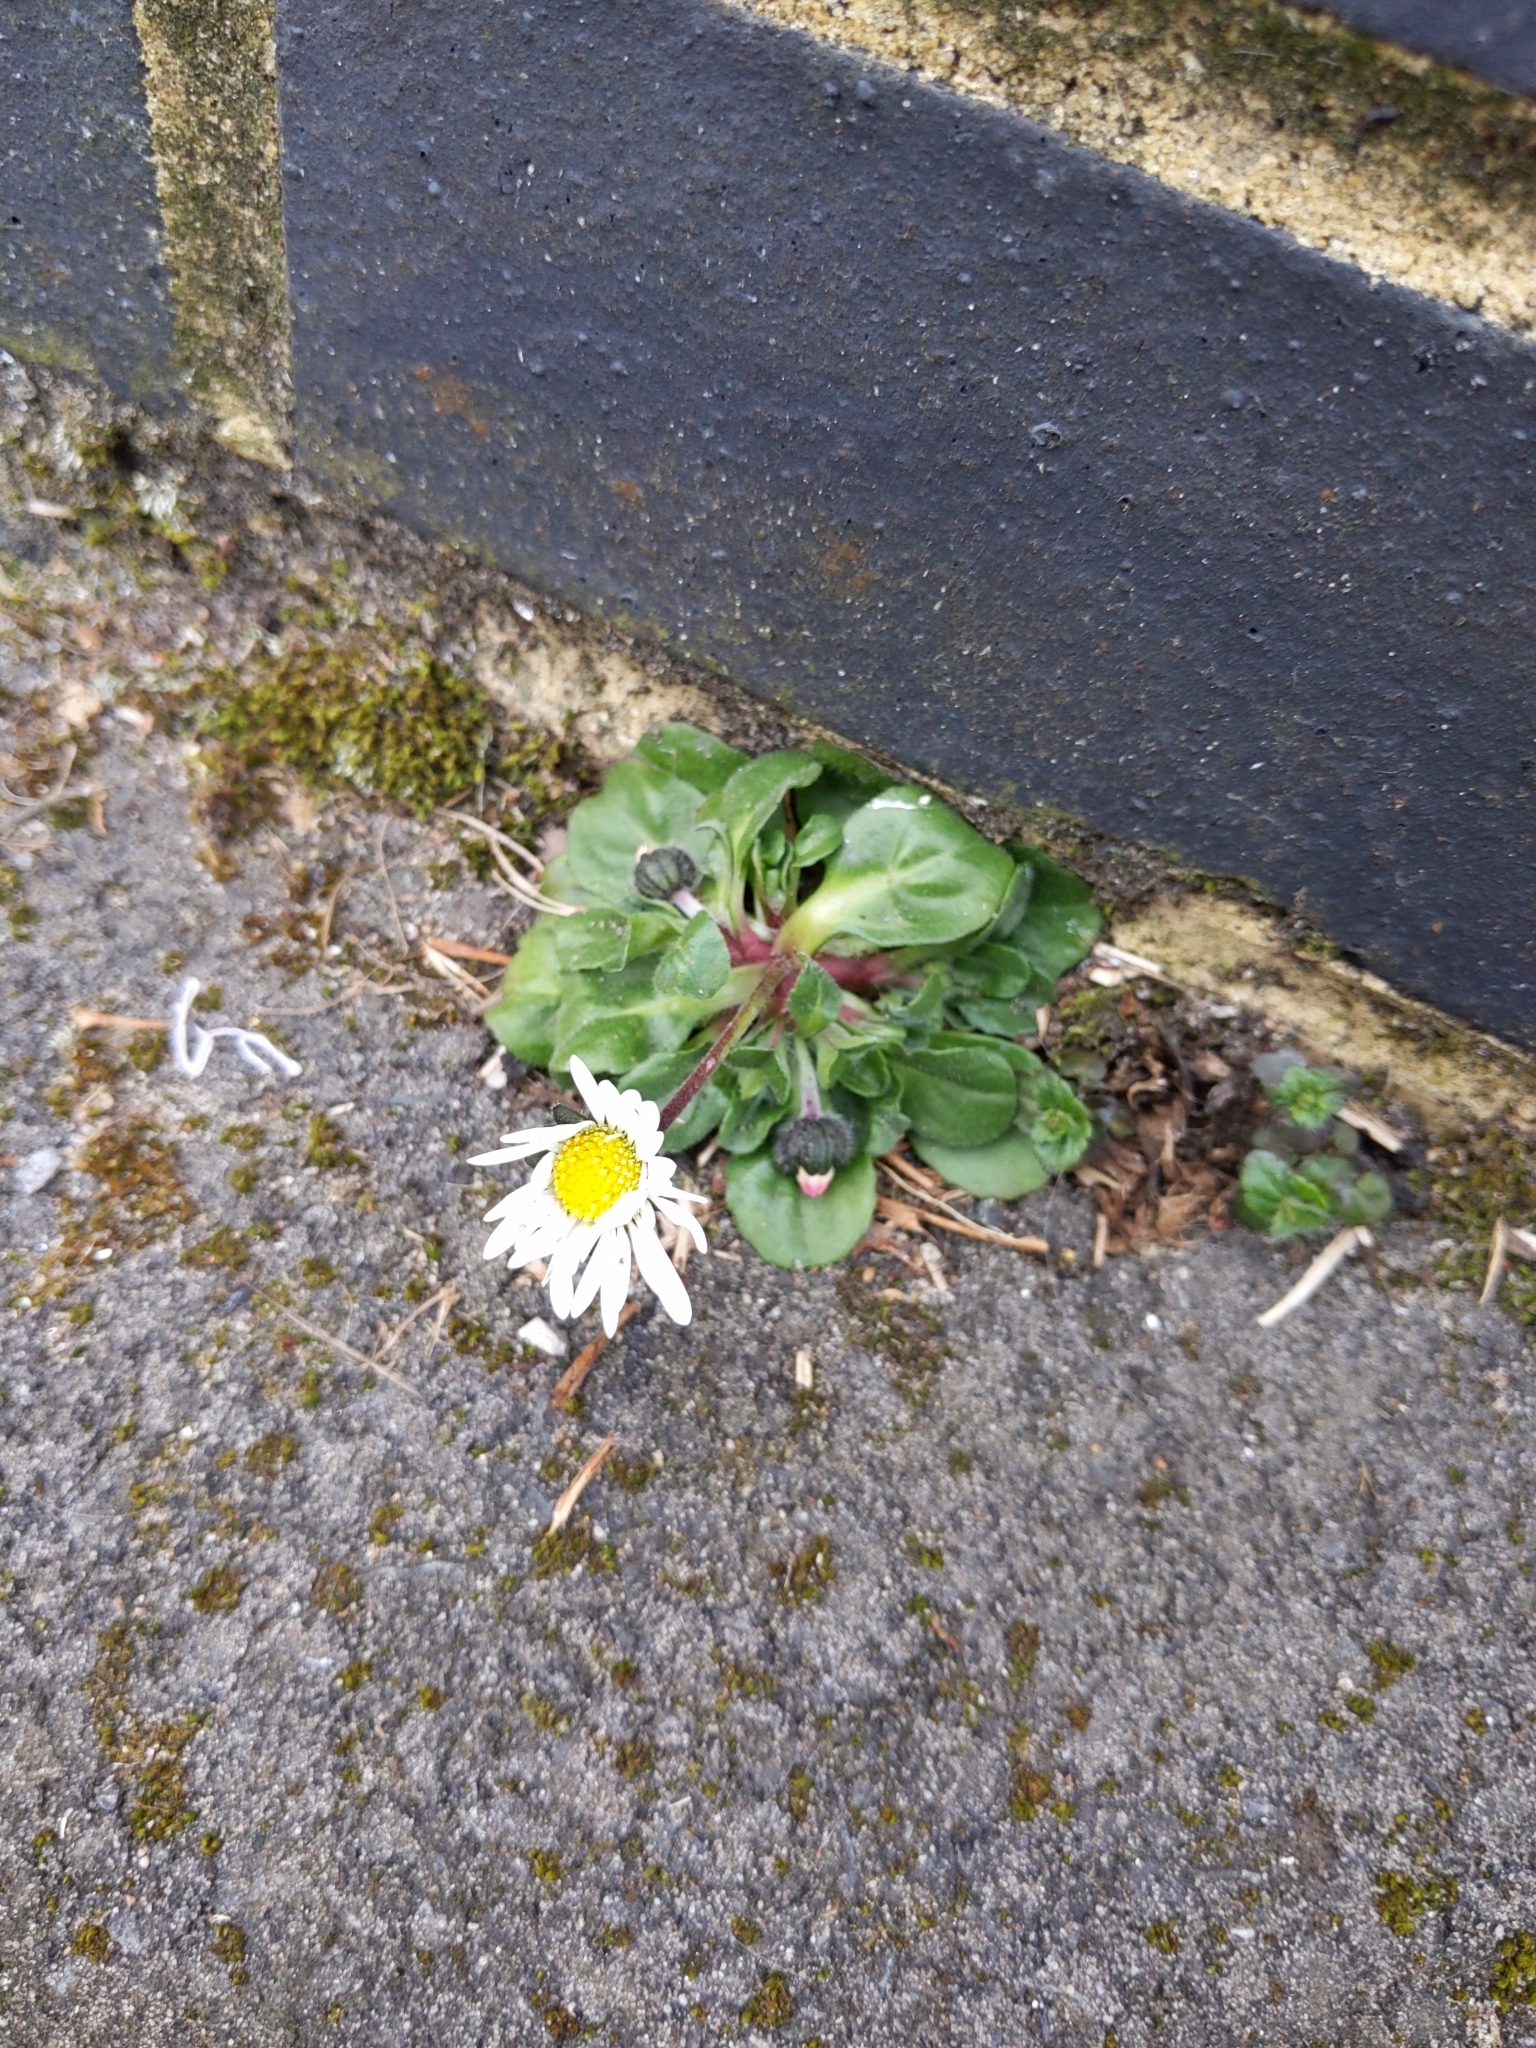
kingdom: Plantae
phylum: Tracheophyta
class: Magnoliopsida
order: Asterales
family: Asteraceae
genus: Bellis
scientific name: Bellis perennis
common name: Lawndaisy
